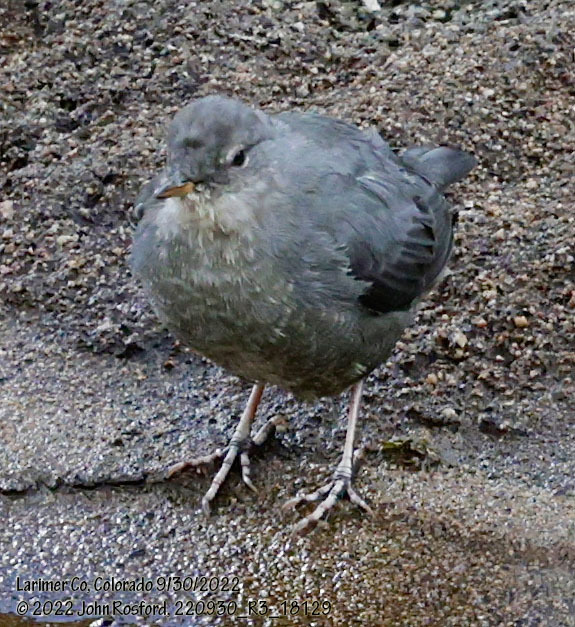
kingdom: Animalia
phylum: Chordata
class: Aves
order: Passeriformes
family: Cinclidae
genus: Cinclus
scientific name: Cinclus mexicanus
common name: American dipper
